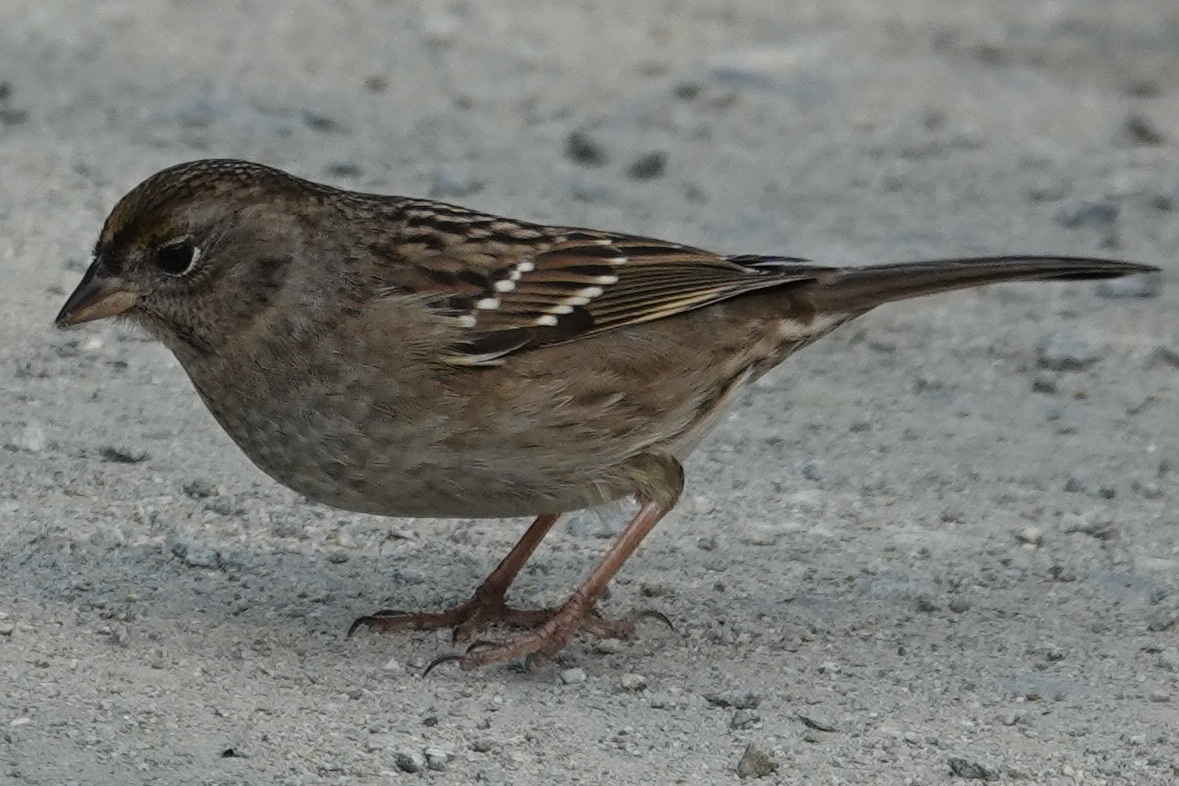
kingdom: Animalia
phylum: Chordata
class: Aves
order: Passeriformes
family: Passerellidae
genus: Zonotrichia
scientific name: Zonotrichia atricapilla
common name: Golden-crowned sparrow
